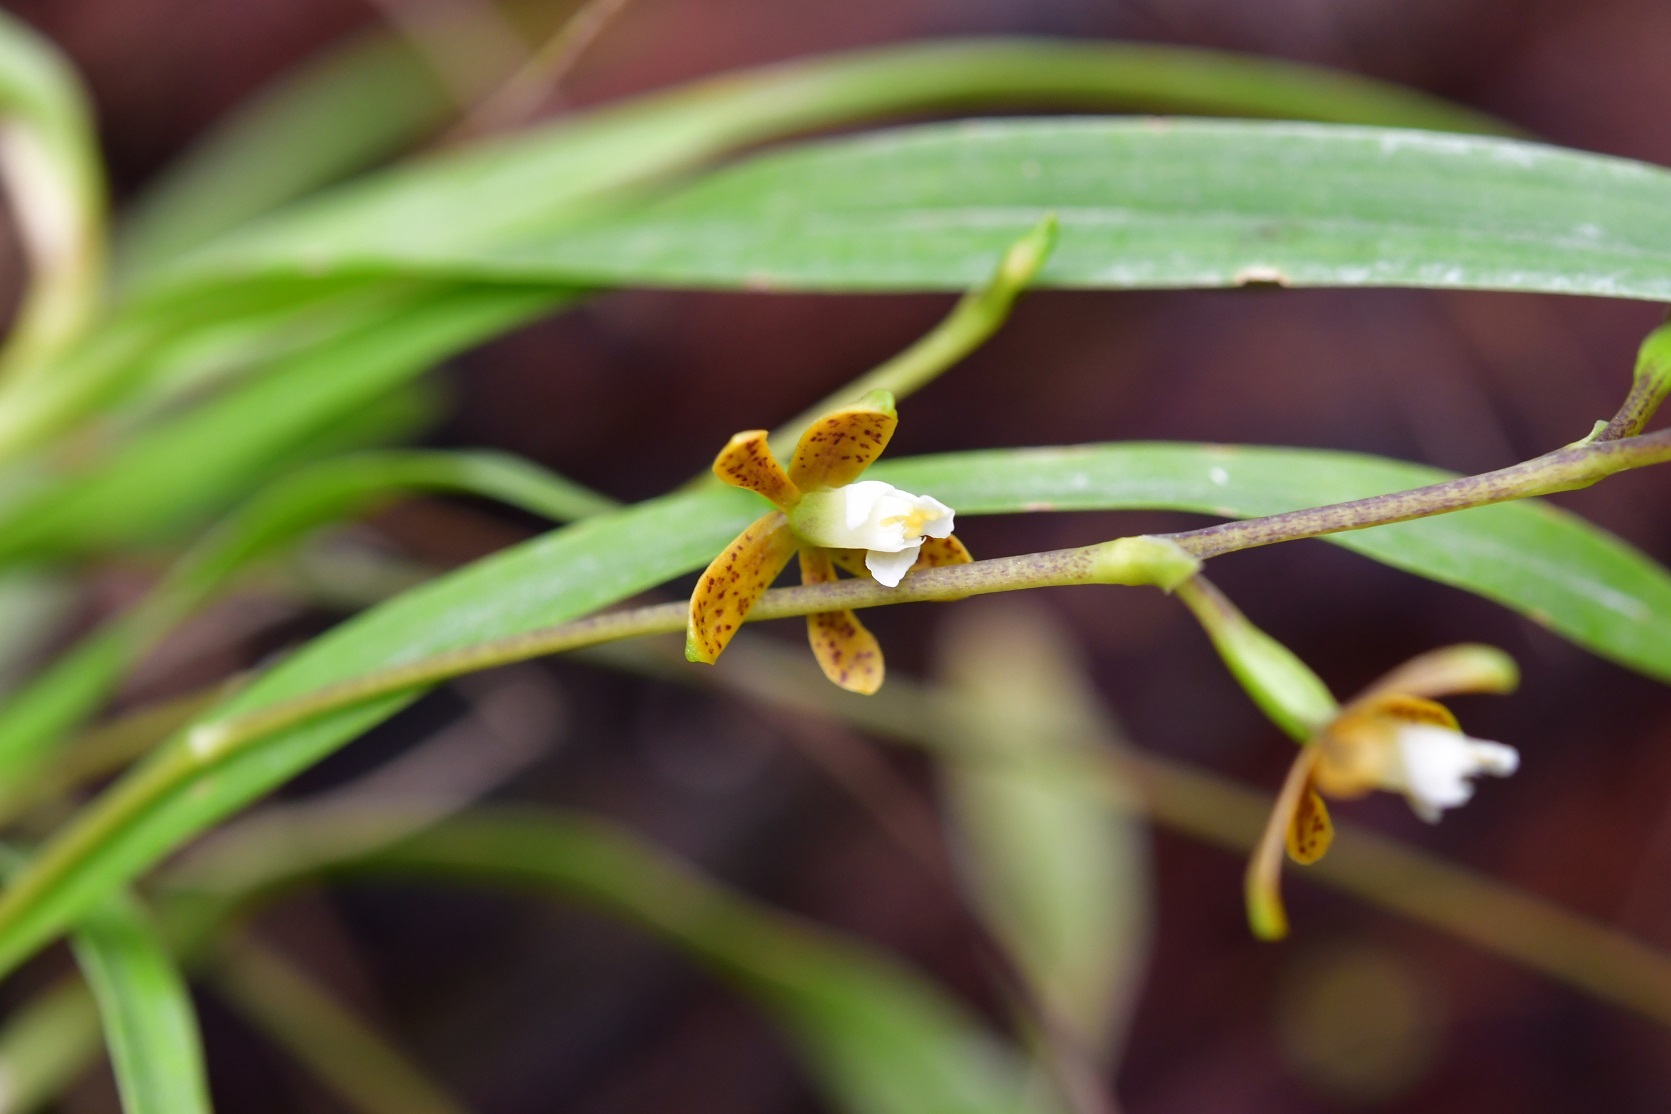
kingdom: Plantae
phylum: Tracheophyta
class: Liliopsida
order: Asparagales
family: Orchidaceae
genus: Prosthechea
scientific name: Prosthechea ochracea
